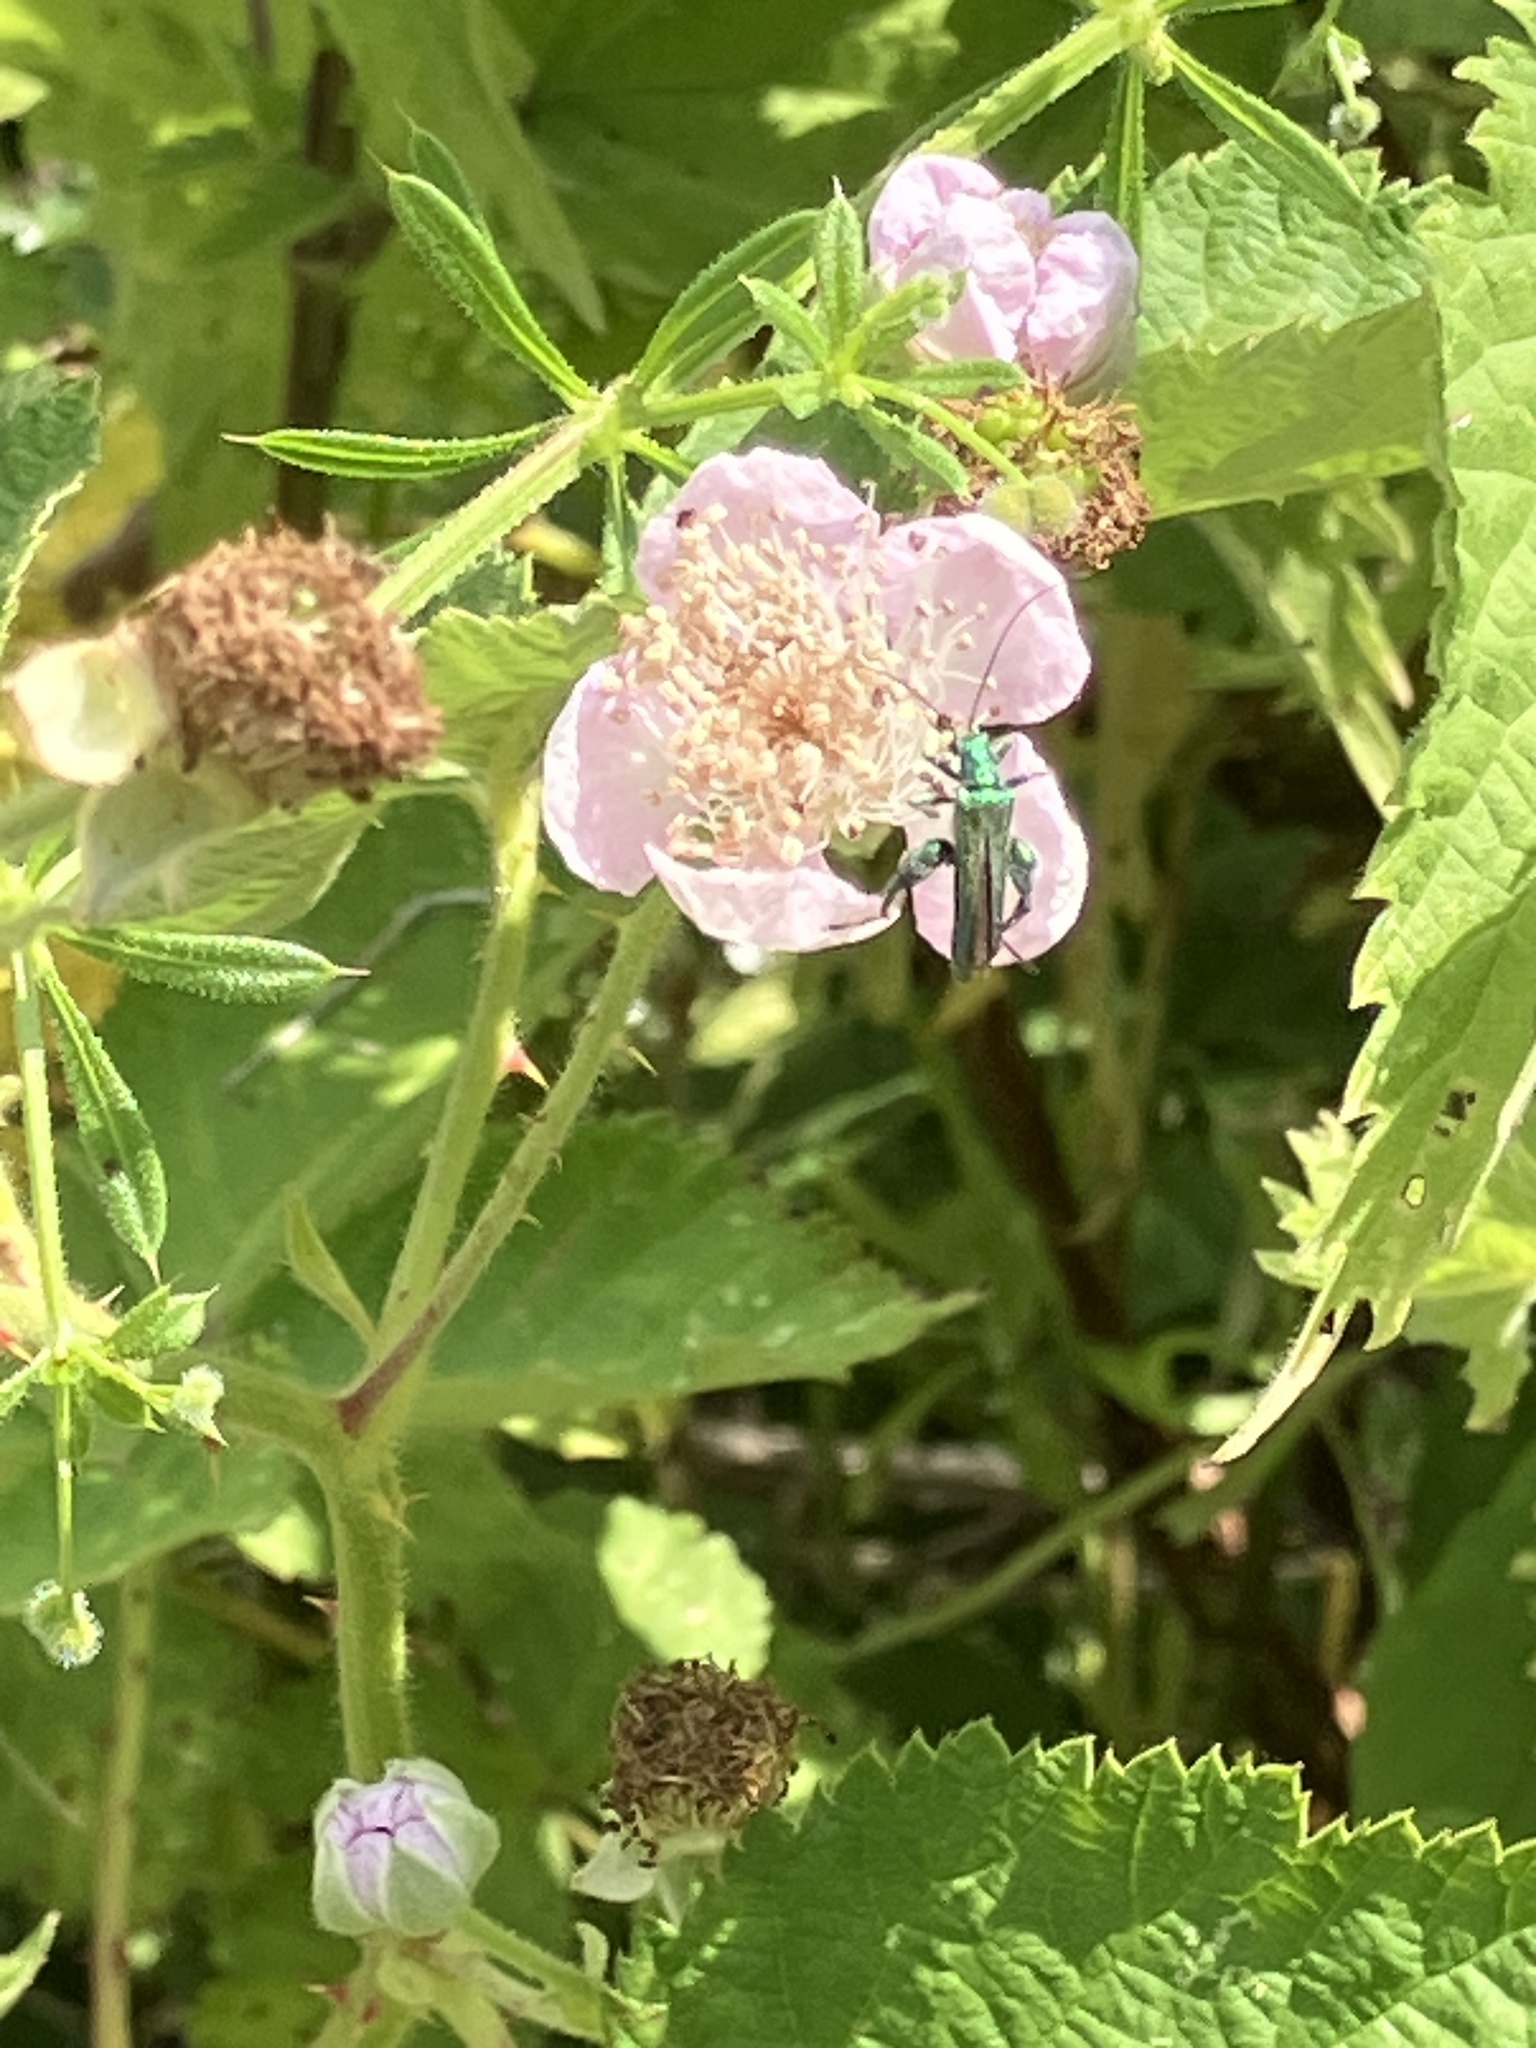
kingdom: Animalia
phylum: Arthropoda
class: Insecta
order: Coleoptera
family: Oedemeridae
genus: Oedemera
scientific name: Oedemera nobilis
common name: Swollen-thighed beetle
